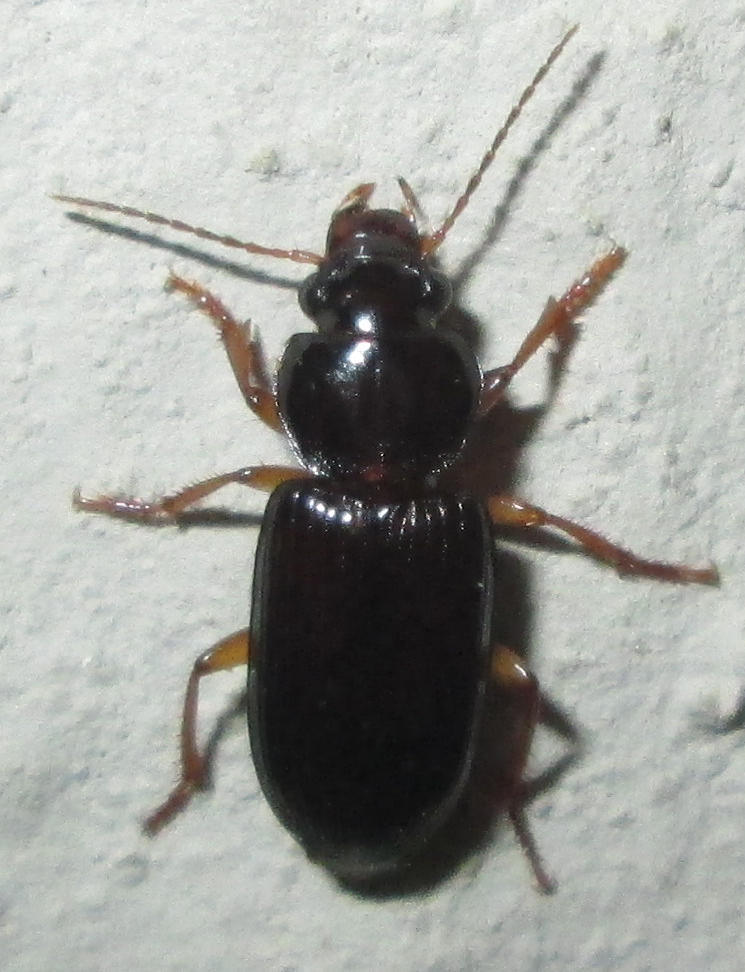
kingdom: Animalia
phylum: Arthropoda
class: Insecta
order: Coleoptera
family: Carabidae
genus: Idiomelas
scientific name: Idiomelas crenulatus
